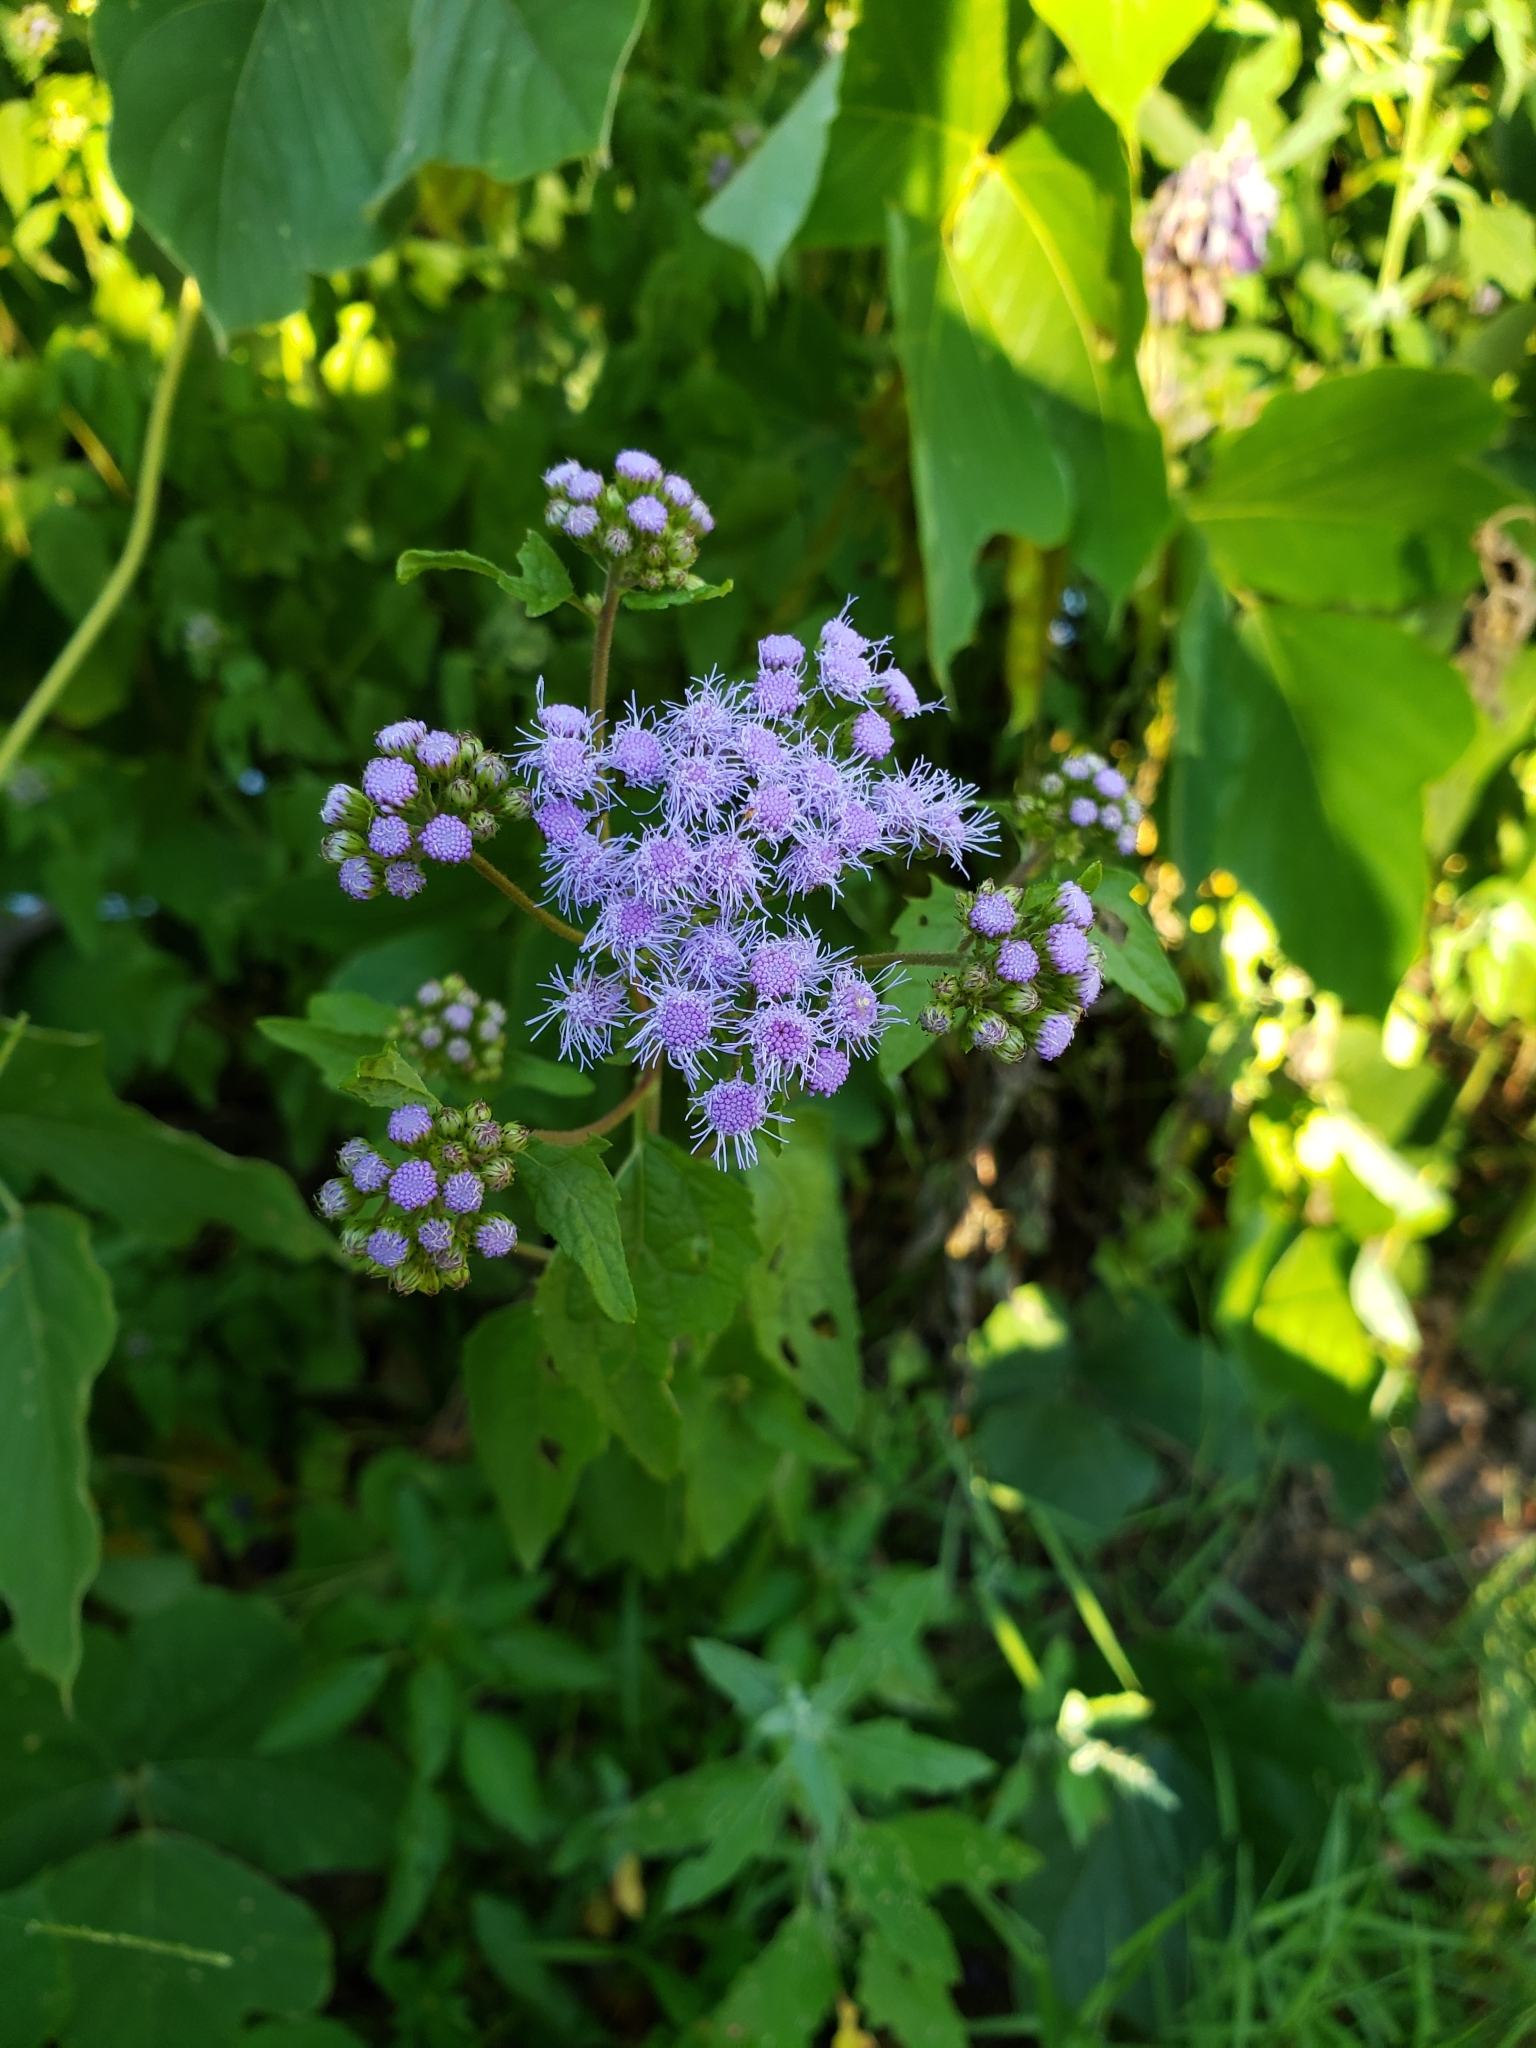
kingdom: Plantae
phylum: Tracheophyta
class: Magnoliopsida
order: Asterales
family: Asteraceae
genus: Conoclinium
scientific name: Conoclinium coelestinum
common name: Blue mistflower
